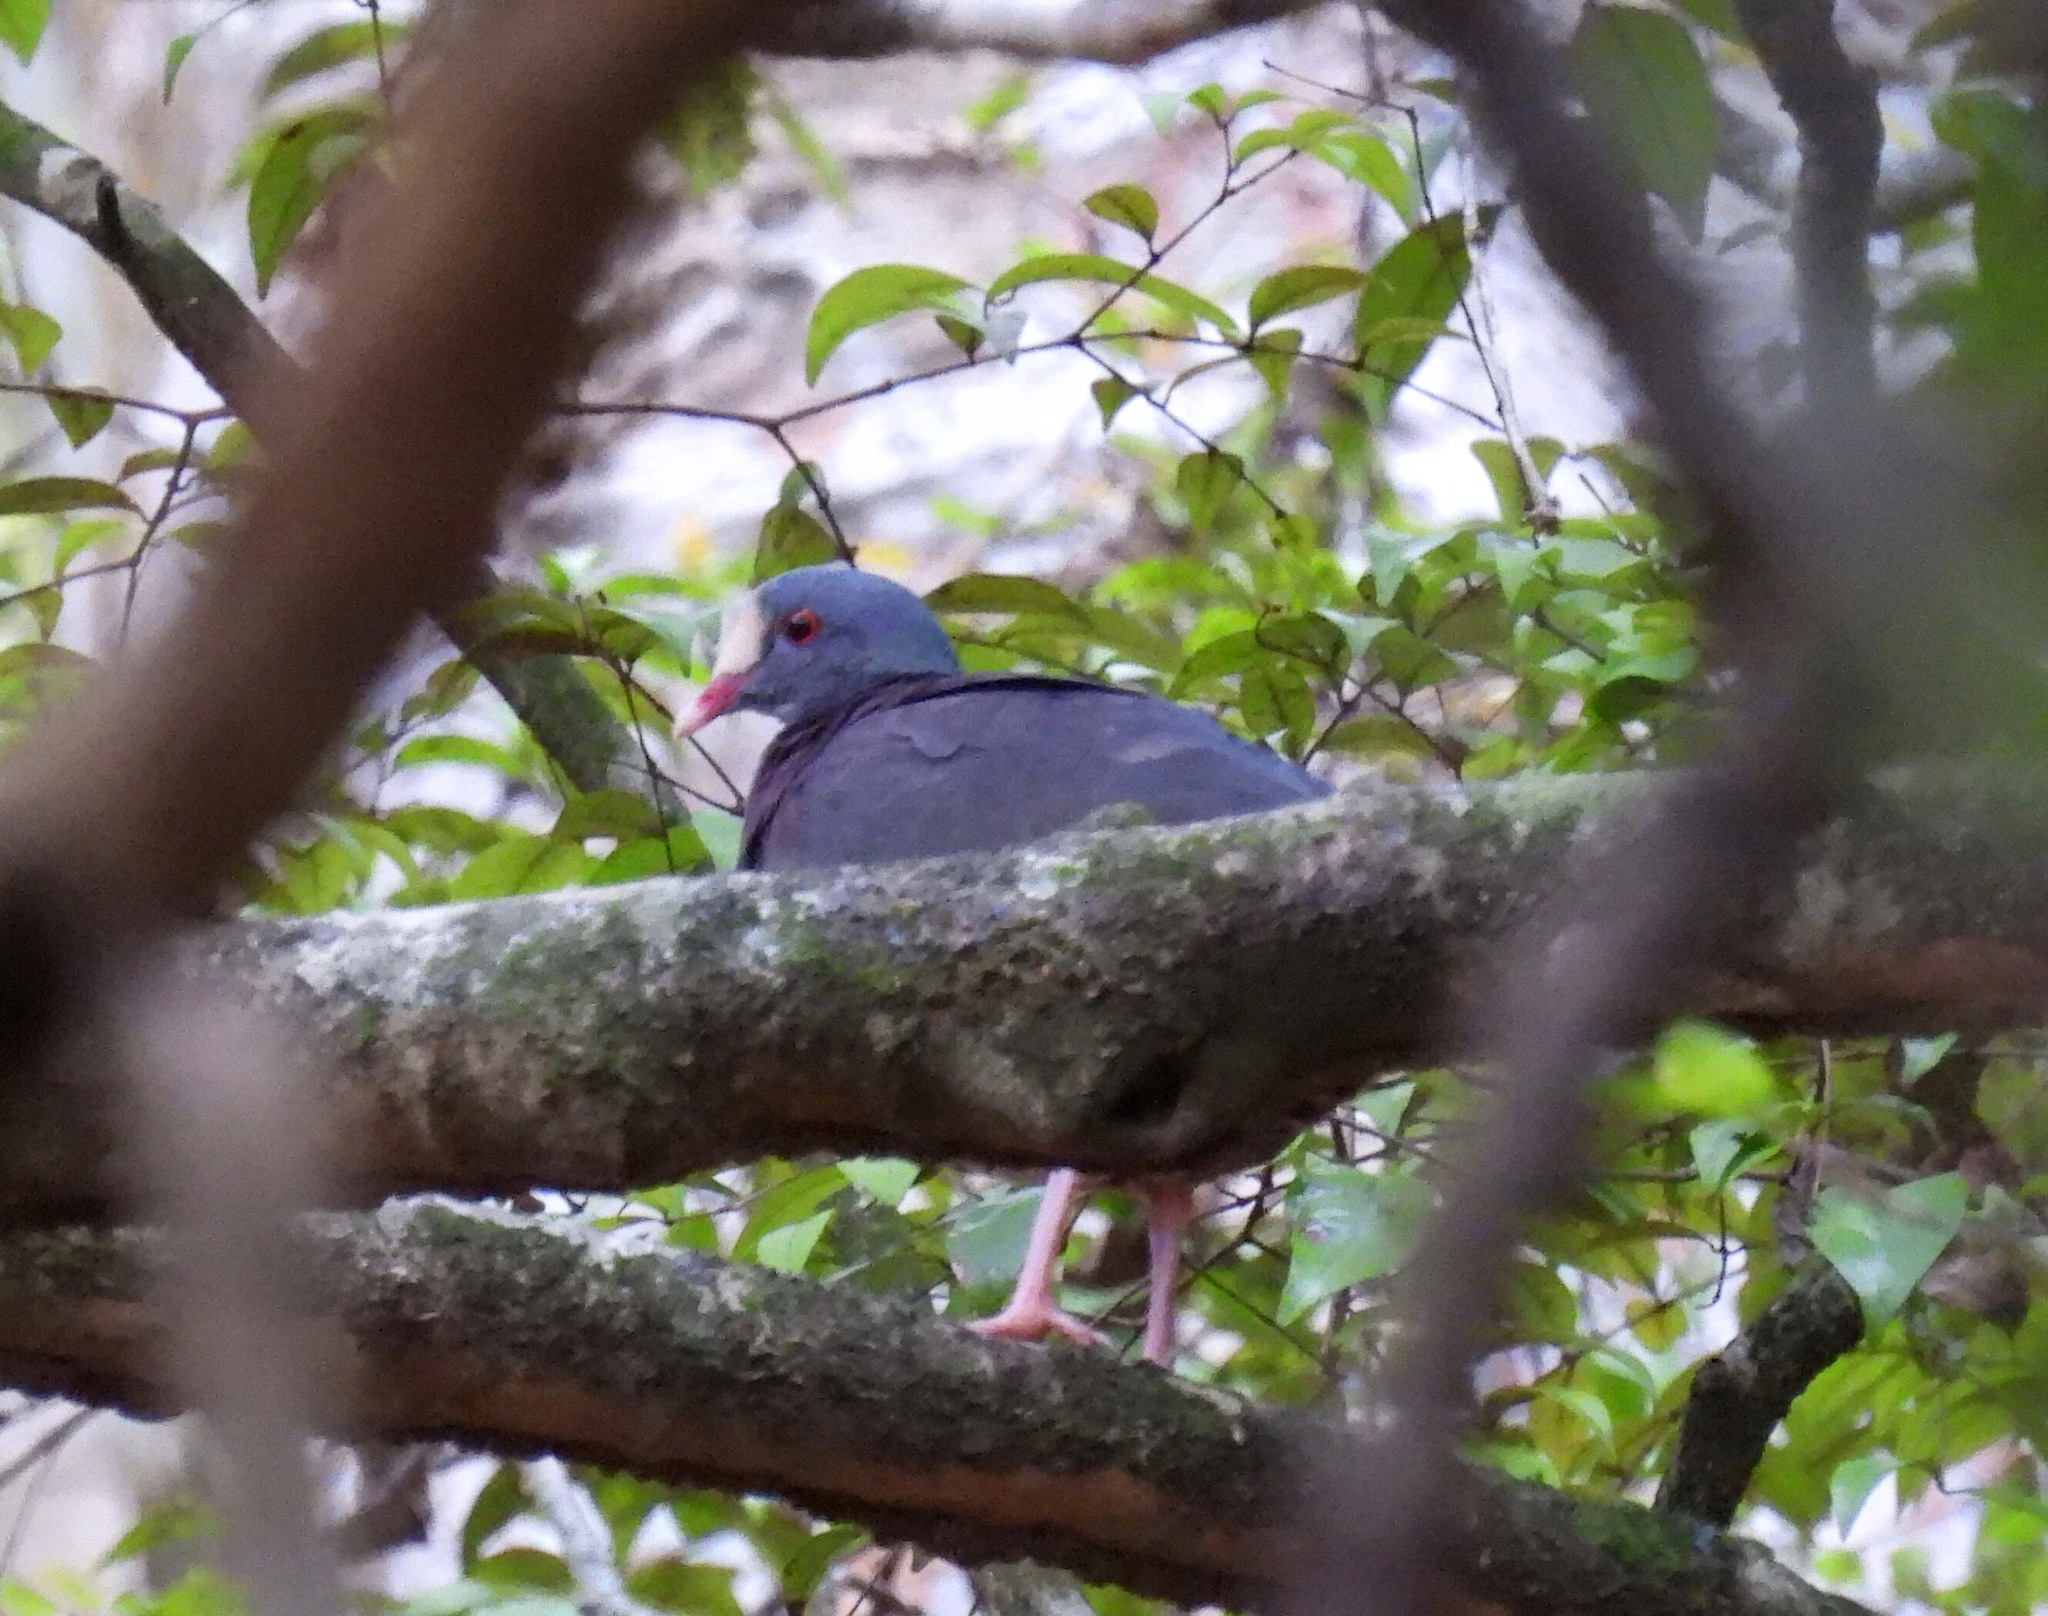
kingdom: Animalia
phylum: Chordata
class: Aves
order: Columbiformes
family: Columbidae
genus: Geotrygon
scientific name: Geotrygon leucometopia
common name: White-fronted quail-dove
